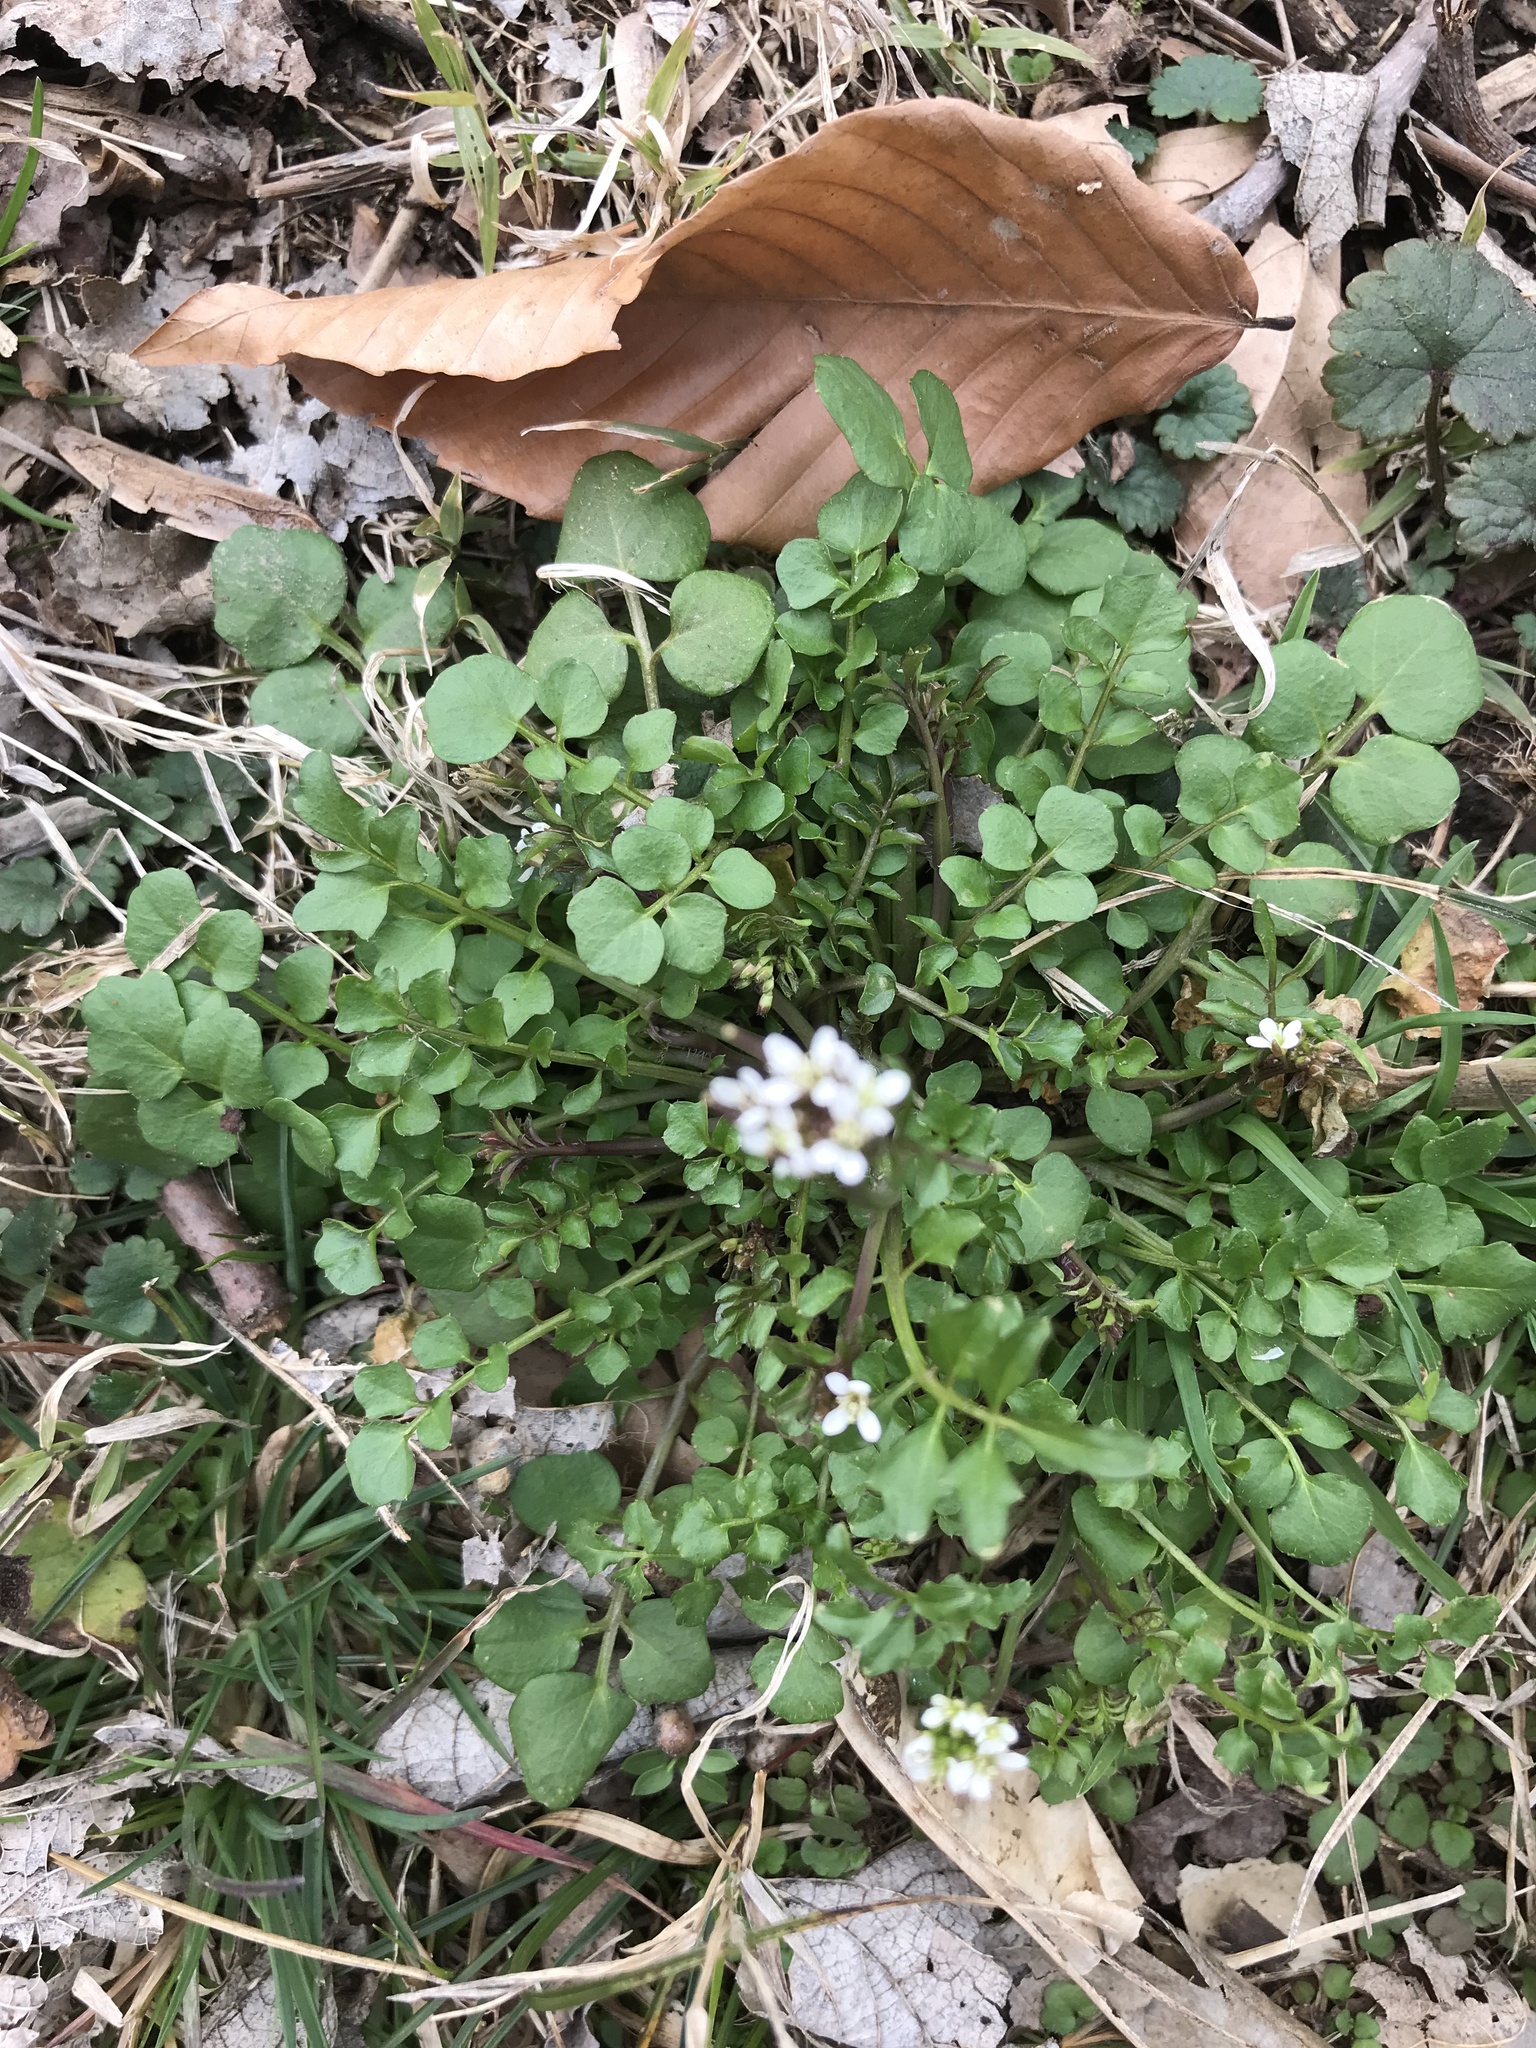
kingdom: Plantae
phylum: Tracheophyta
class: Magnoliopsida
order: Brassicales
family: Brassicaceae
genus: Cardamine
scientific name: Cardamine hirsuta
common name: Hairy bittercress
